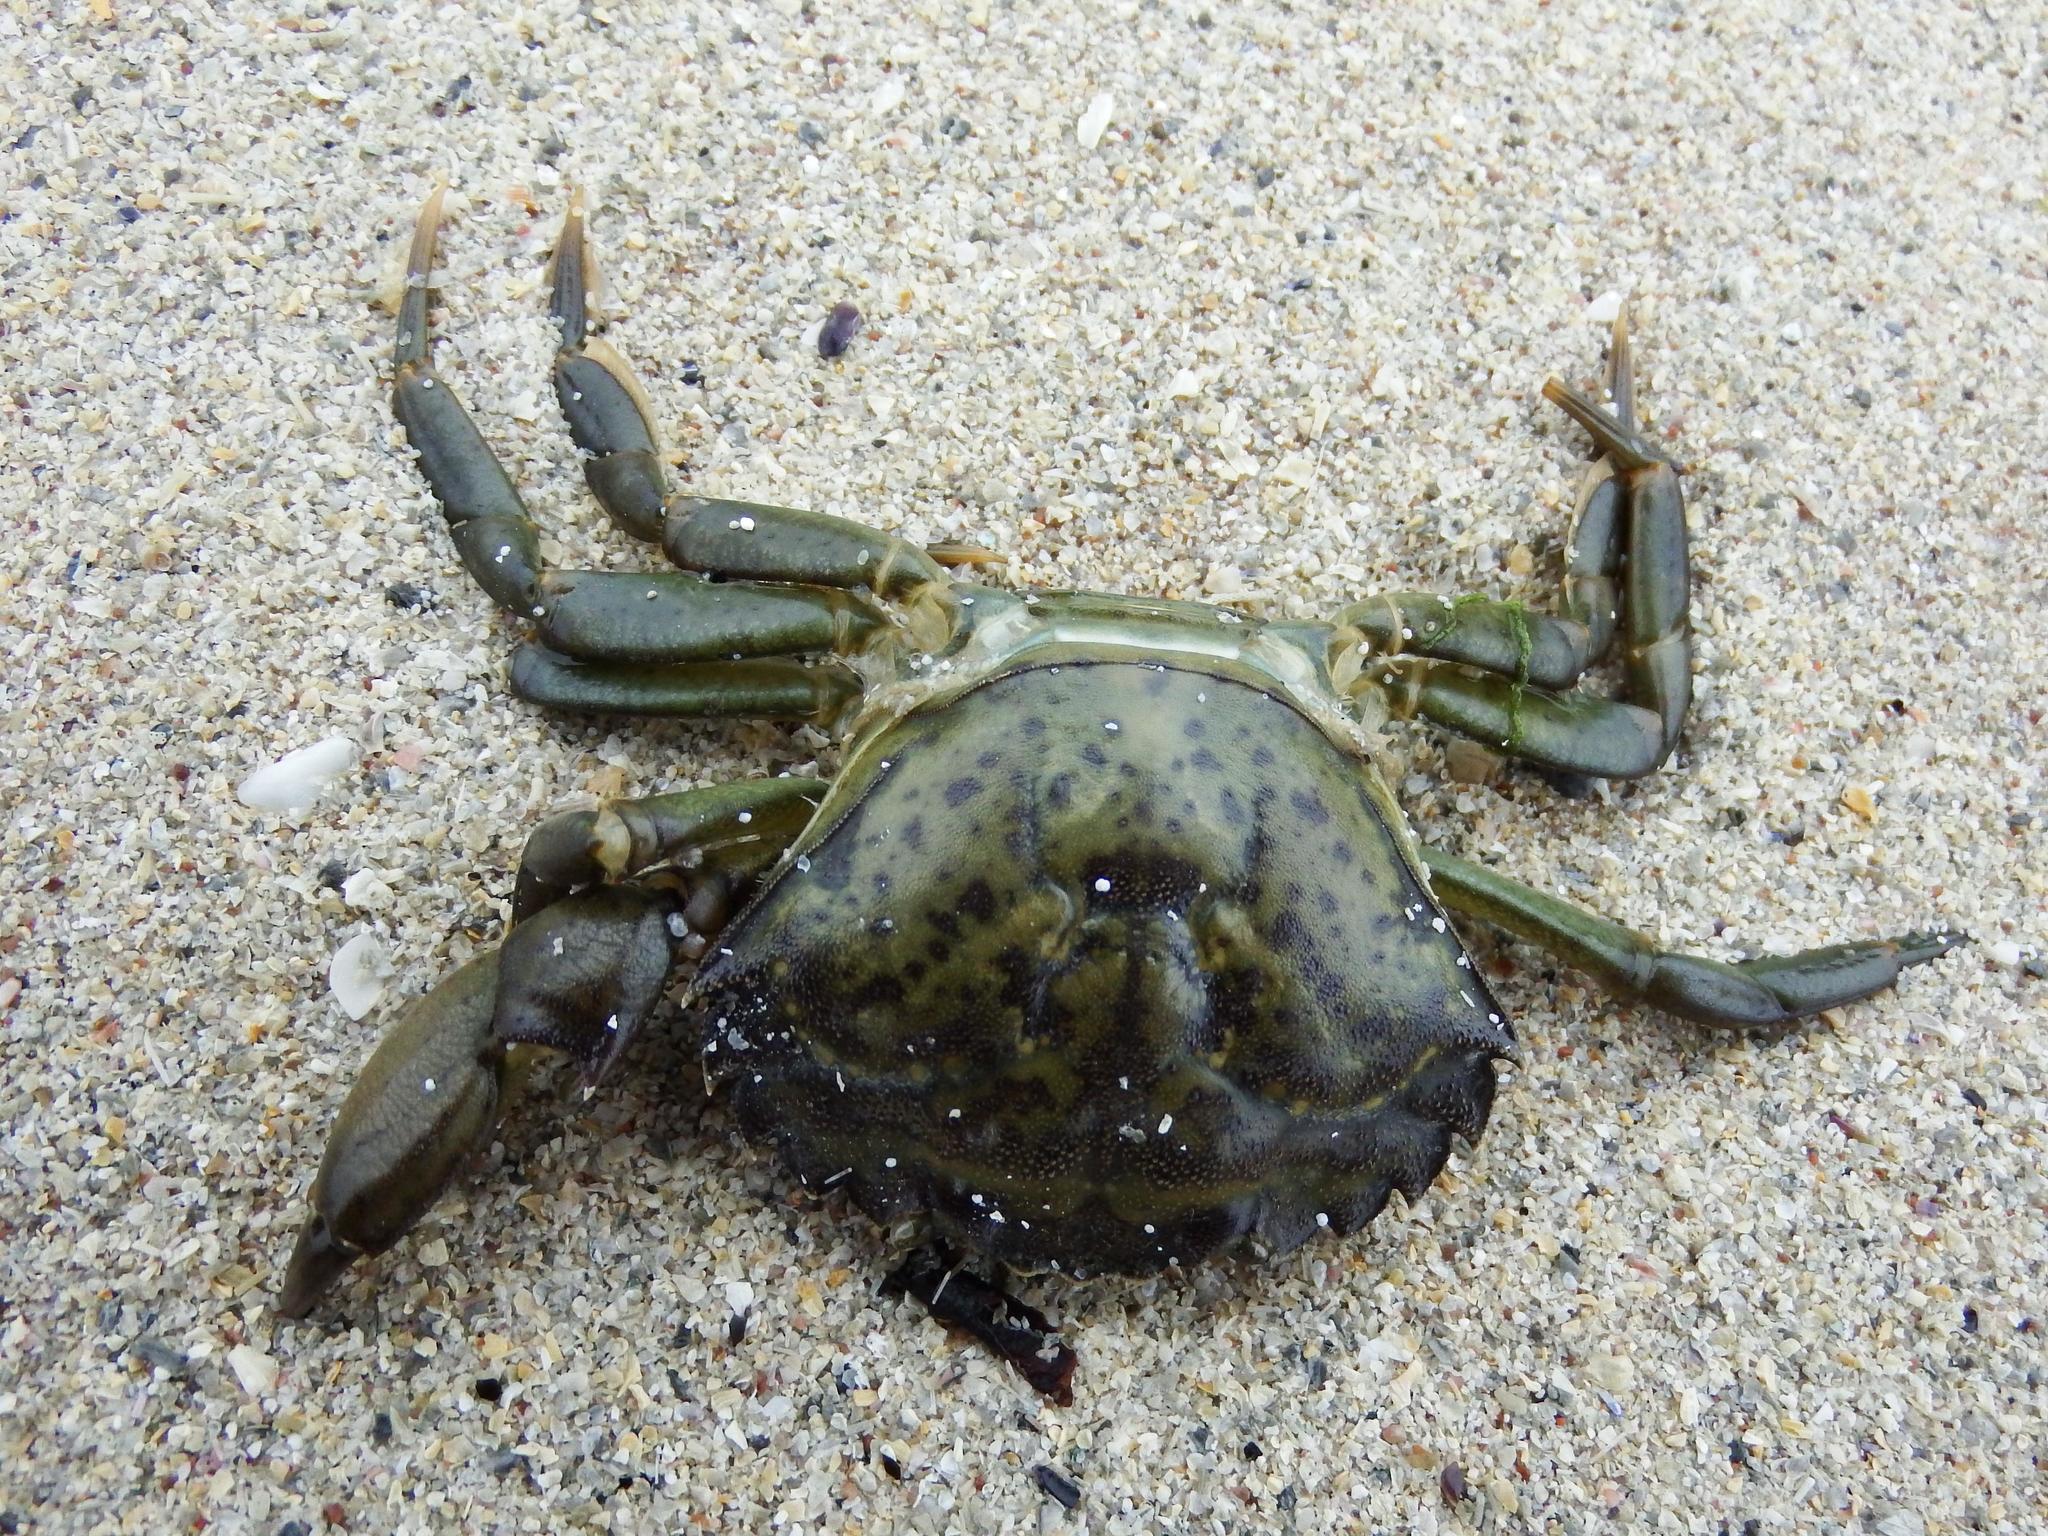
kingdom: Animalia
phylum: Arthropoda
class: Malacostraca
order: Decapoda
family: Carcinidae
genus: Carcinus
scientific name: Carcinus maenas
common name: European green crab
